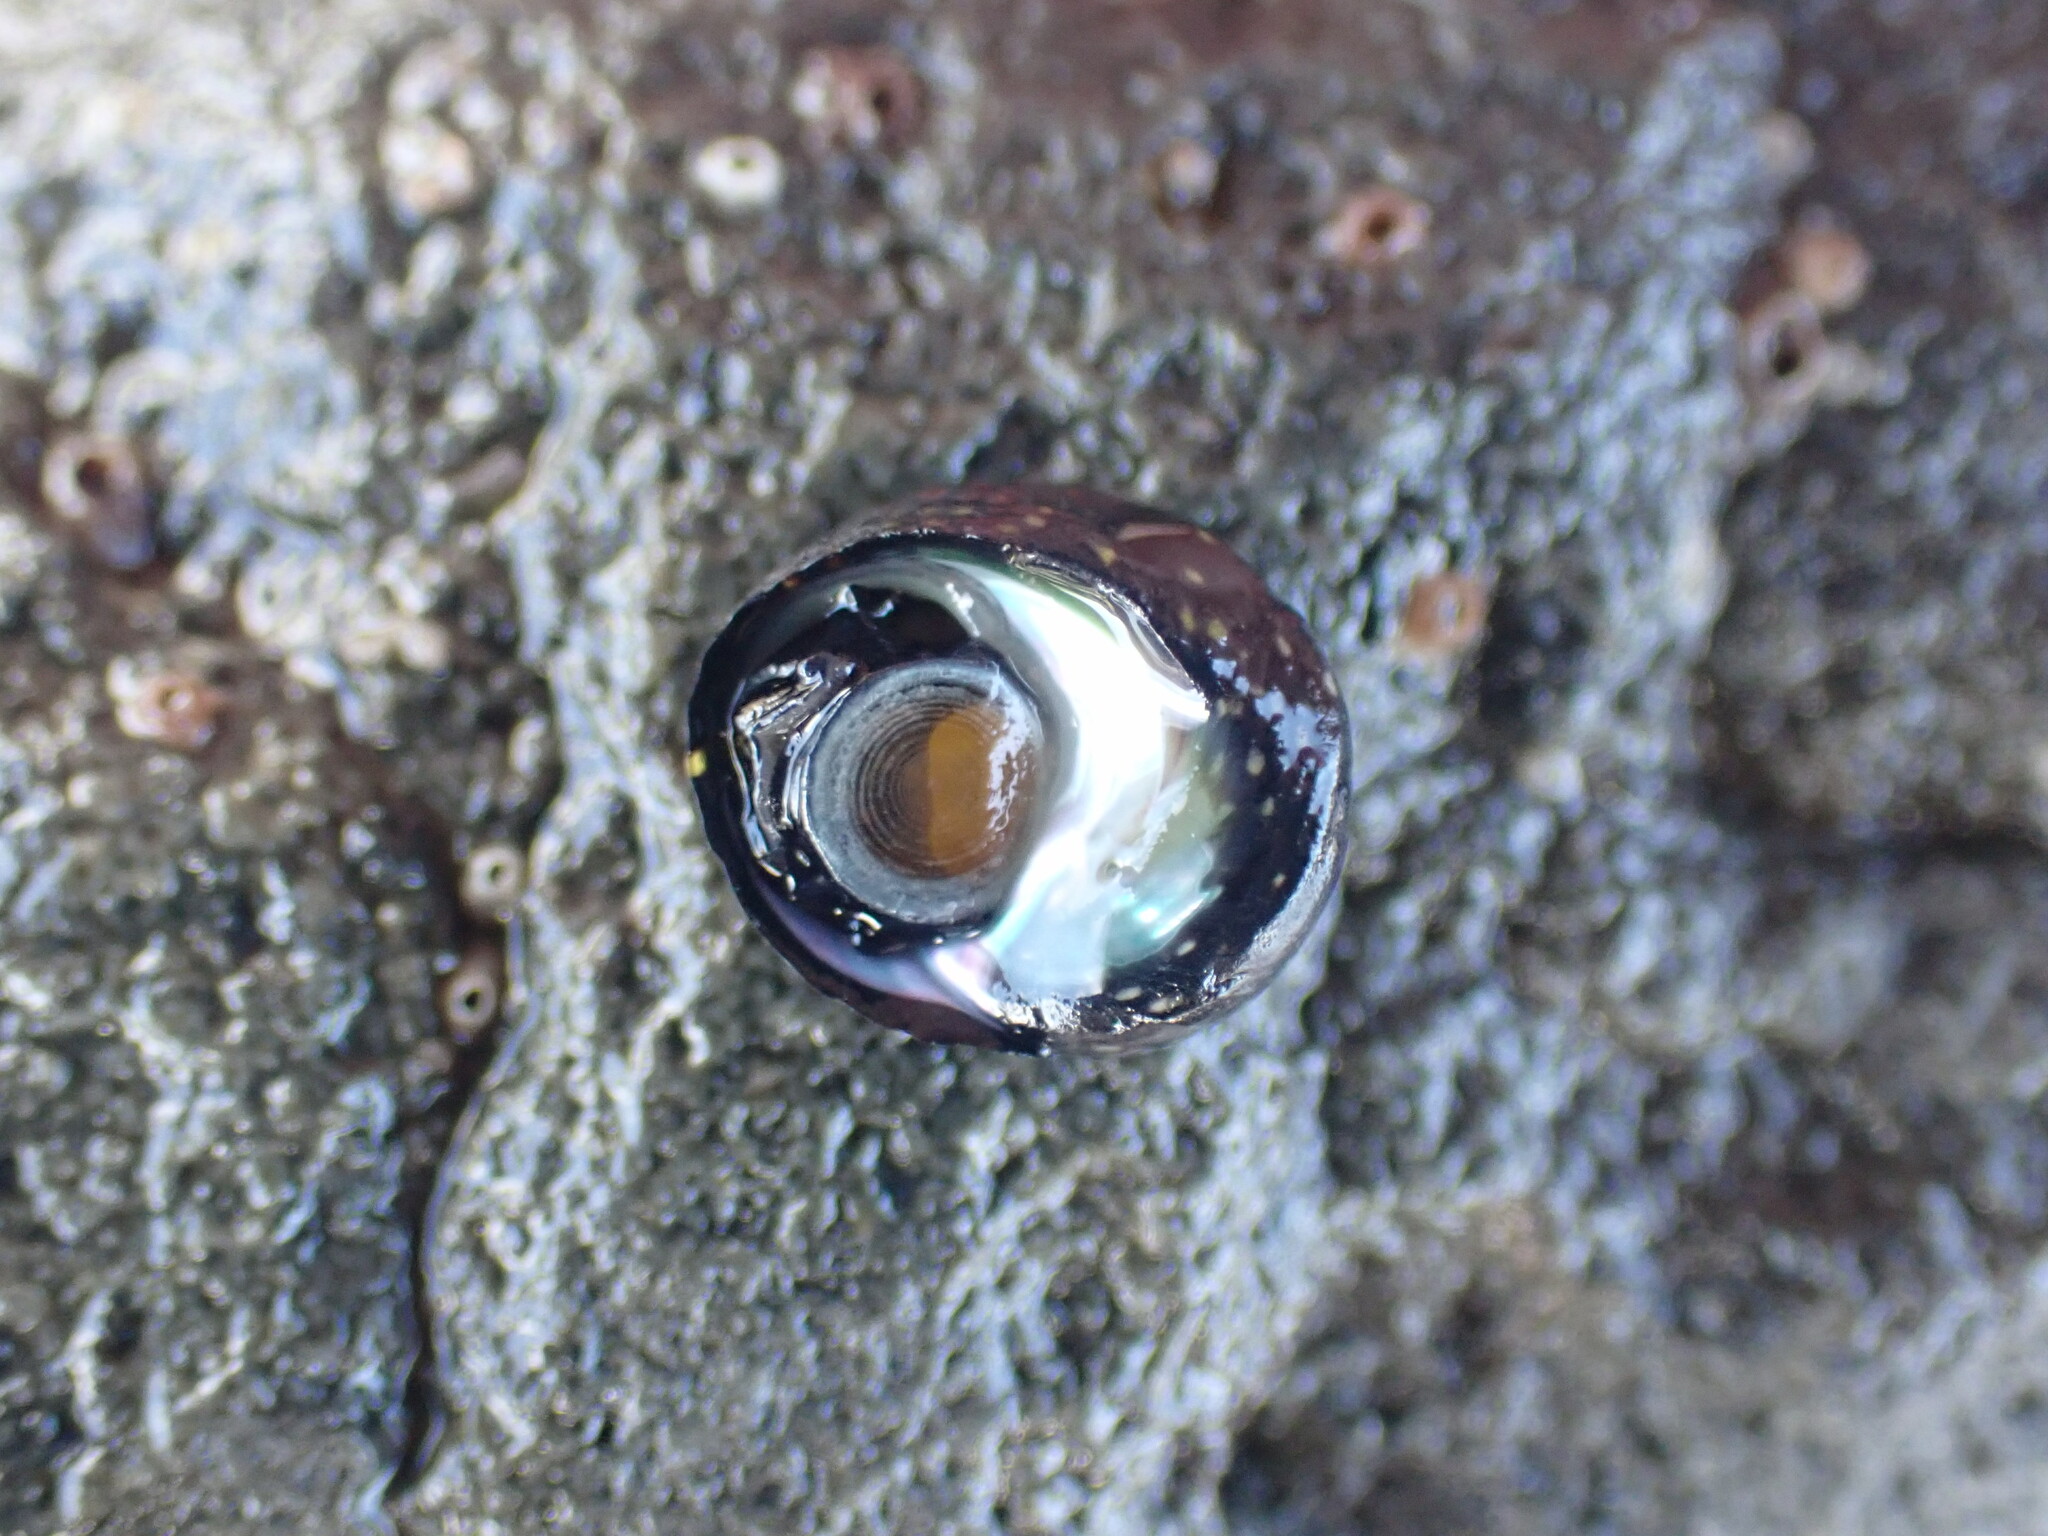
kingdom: Animalia
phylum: Mollusca
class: Gastropoda
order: Trochida
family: Trochidae
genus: Diloma
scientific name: Diloma aridum
